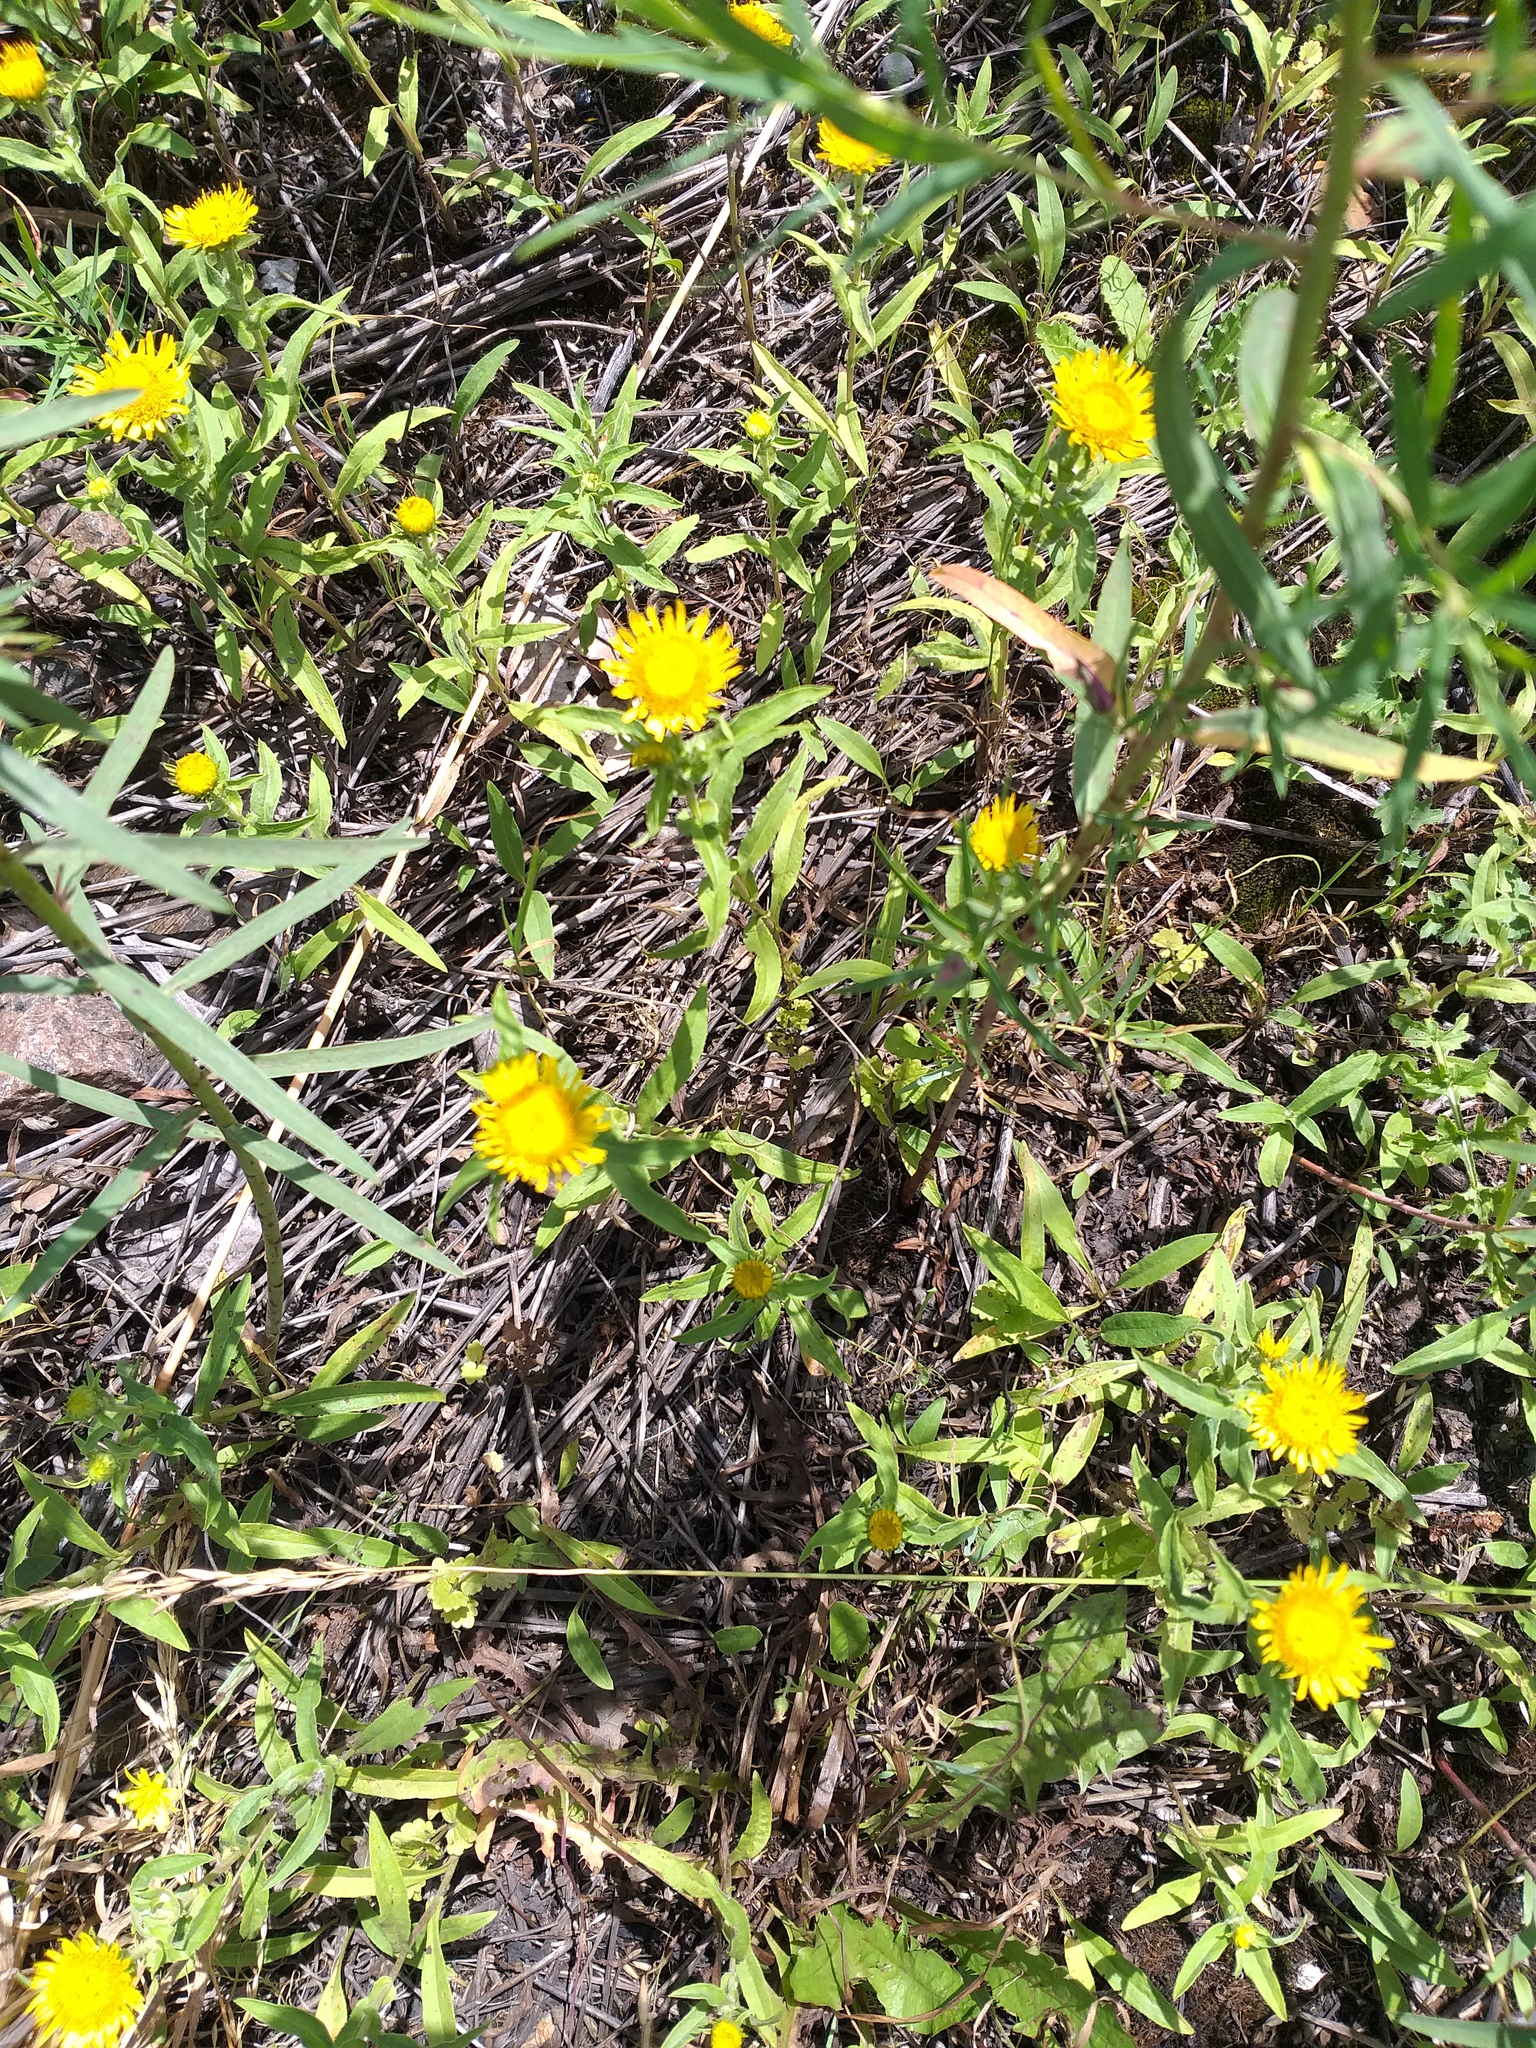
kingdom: Plantae
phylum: Tracheophyta
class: Magnoliopsida
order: Asterales
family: Asteraceae
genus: Pentanema
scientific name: Pentanema britannicum
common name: British elecampane
